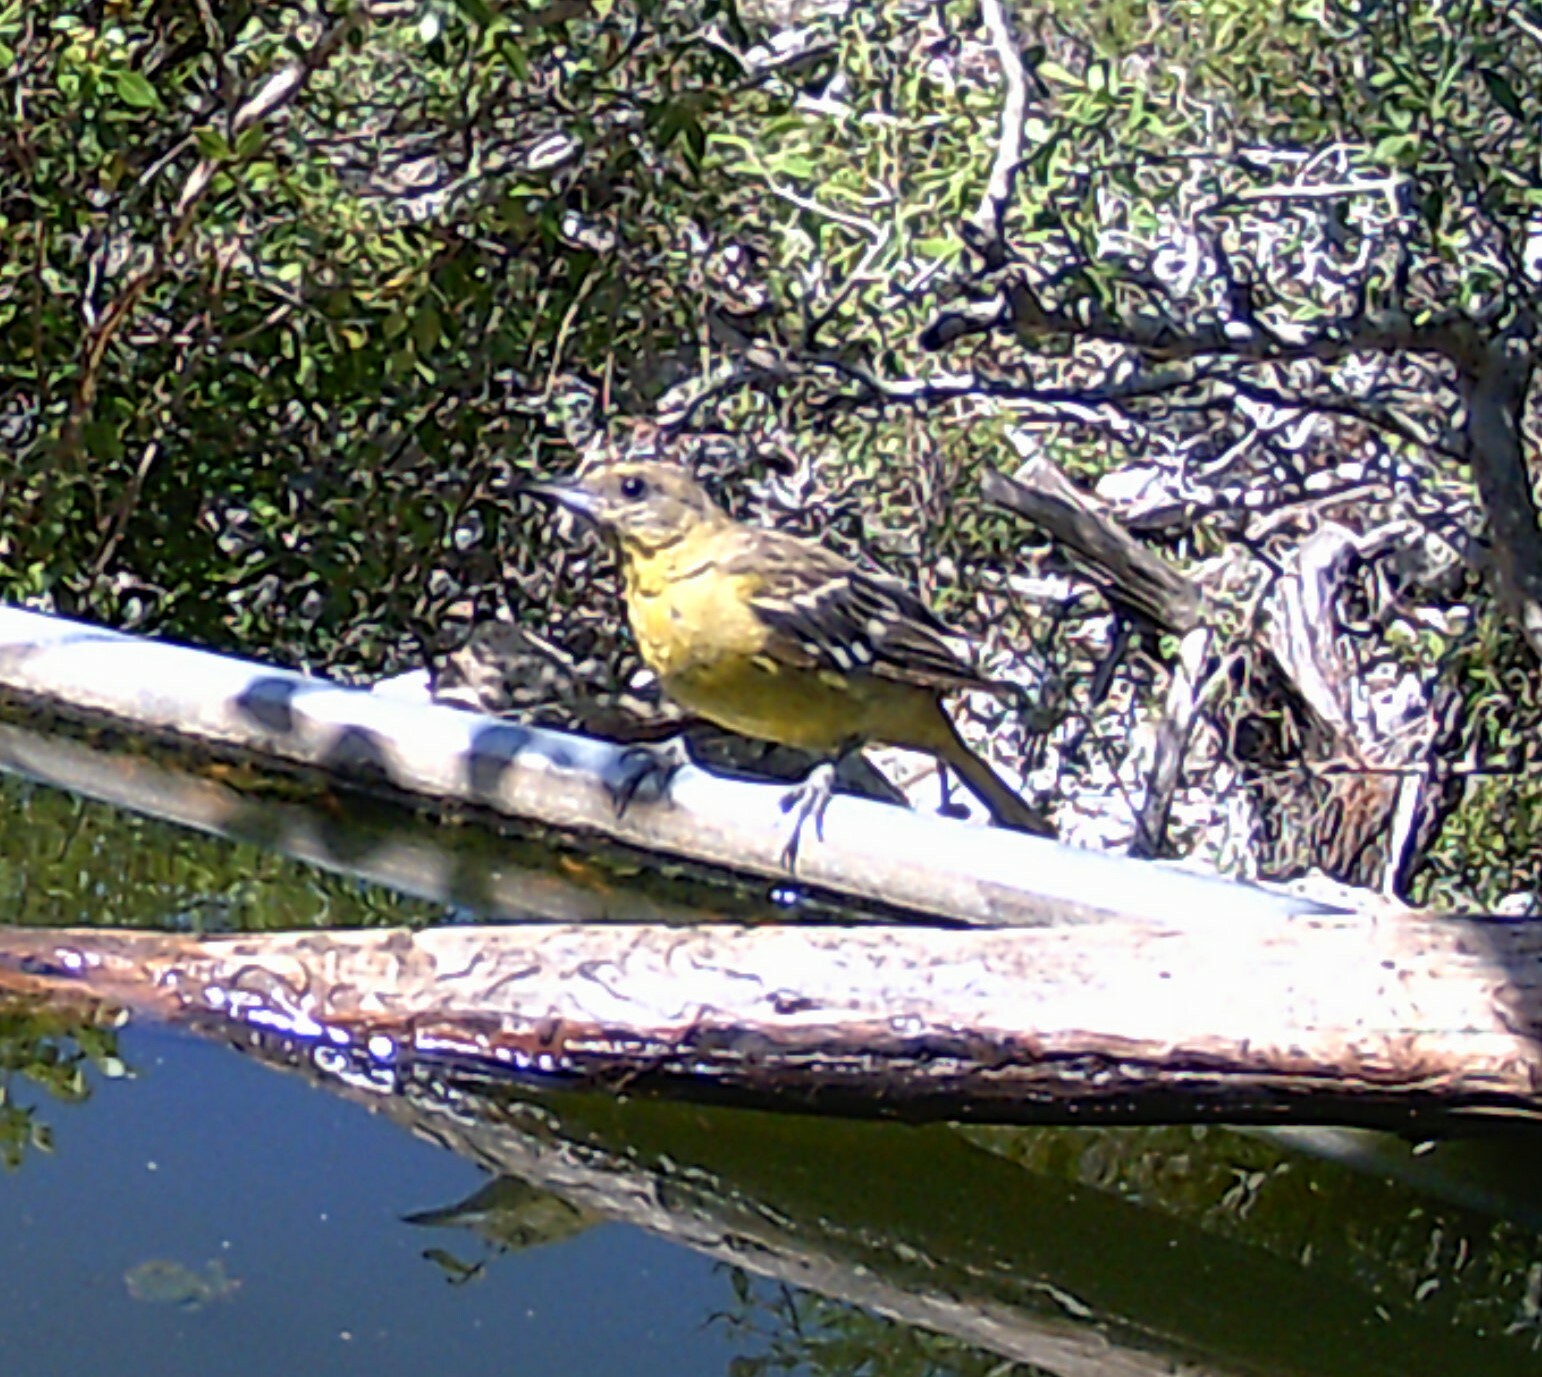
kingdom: Animalia
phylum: Chordata
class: Aves
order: Passeriformes
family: Icteridae
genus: Icterus
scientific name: Icterus parisorum
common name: Scott's oriole
